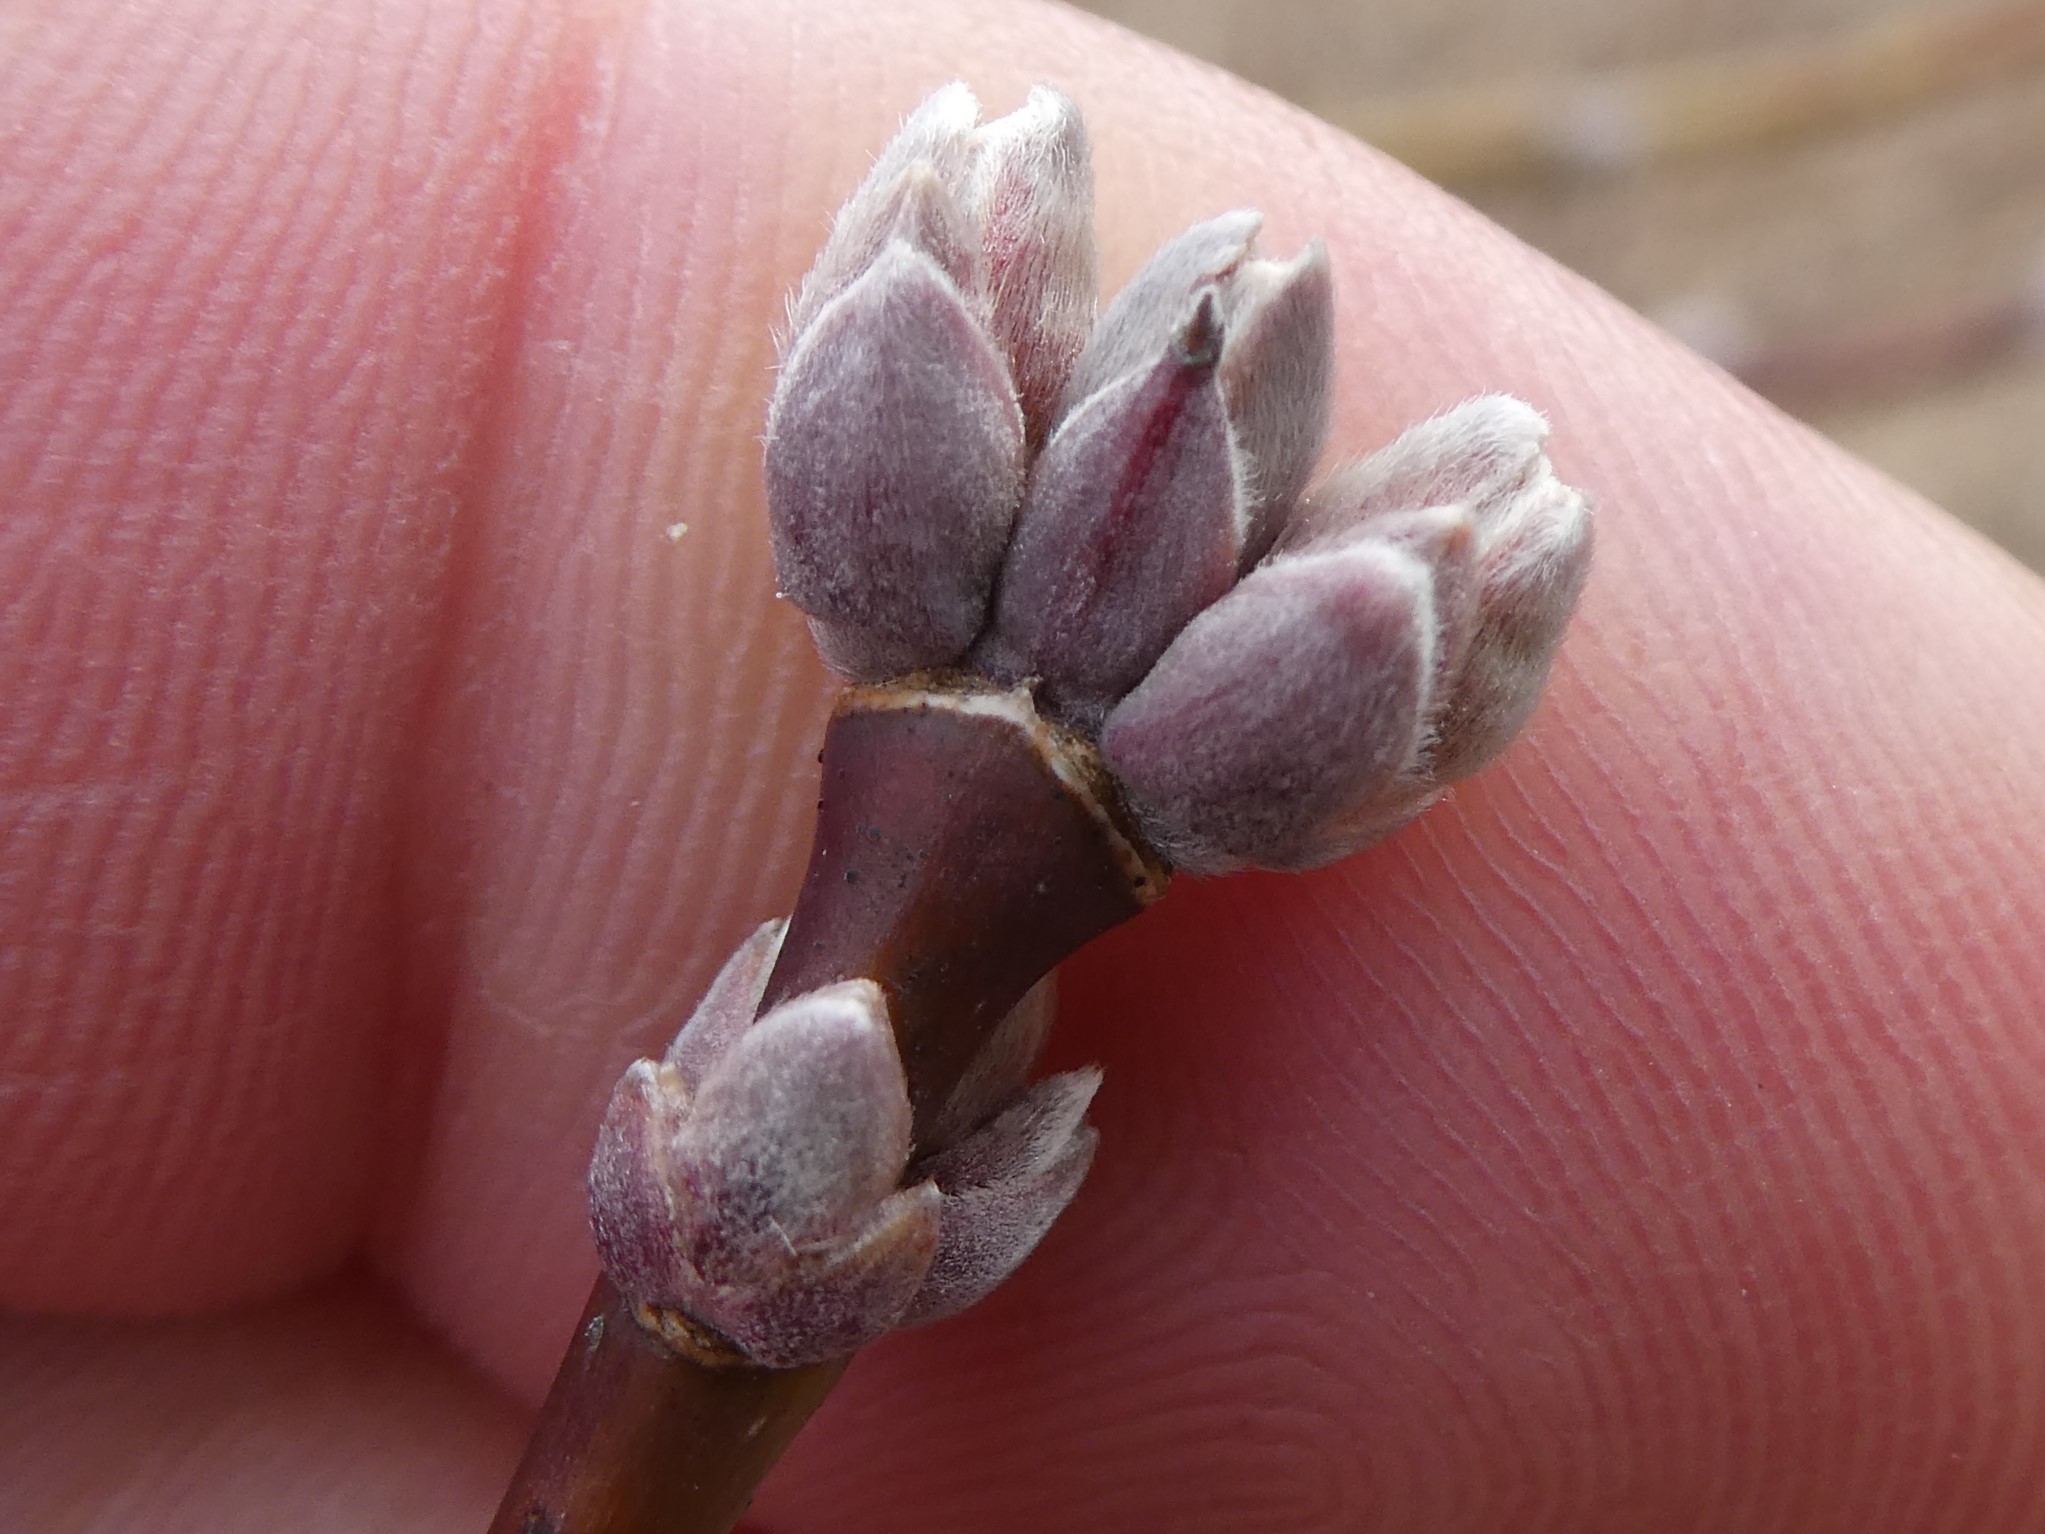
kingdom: Plantae
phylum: Tracheophyta
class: Magnoliopsida
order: Sapindales
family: Sapindaceae
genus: Acer
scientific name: Acer negundo
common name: Ashleaf maple
